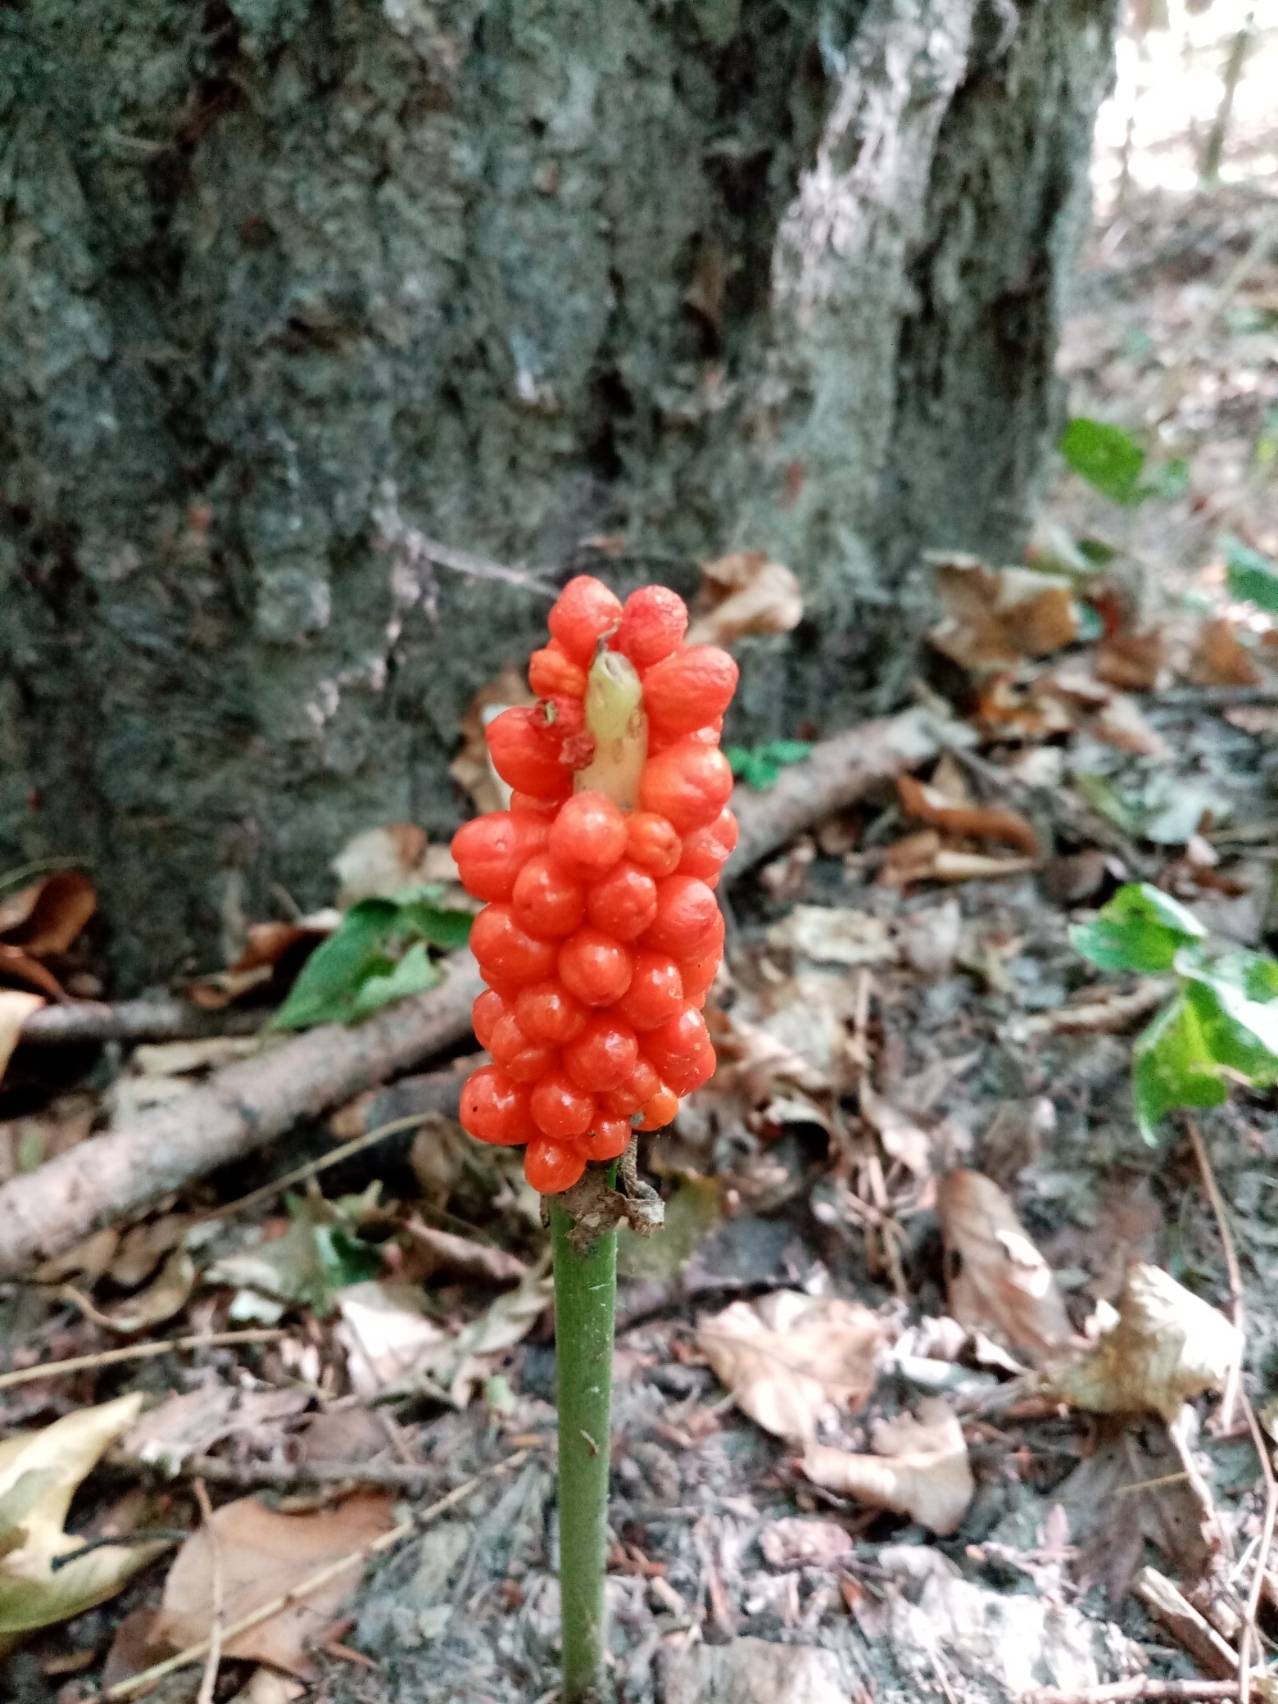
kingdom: Plantae
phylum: Tracheophyta
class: Liliopsida
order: Alismatales
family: Araceae
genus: Arum
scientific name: Arum cylindraceum
